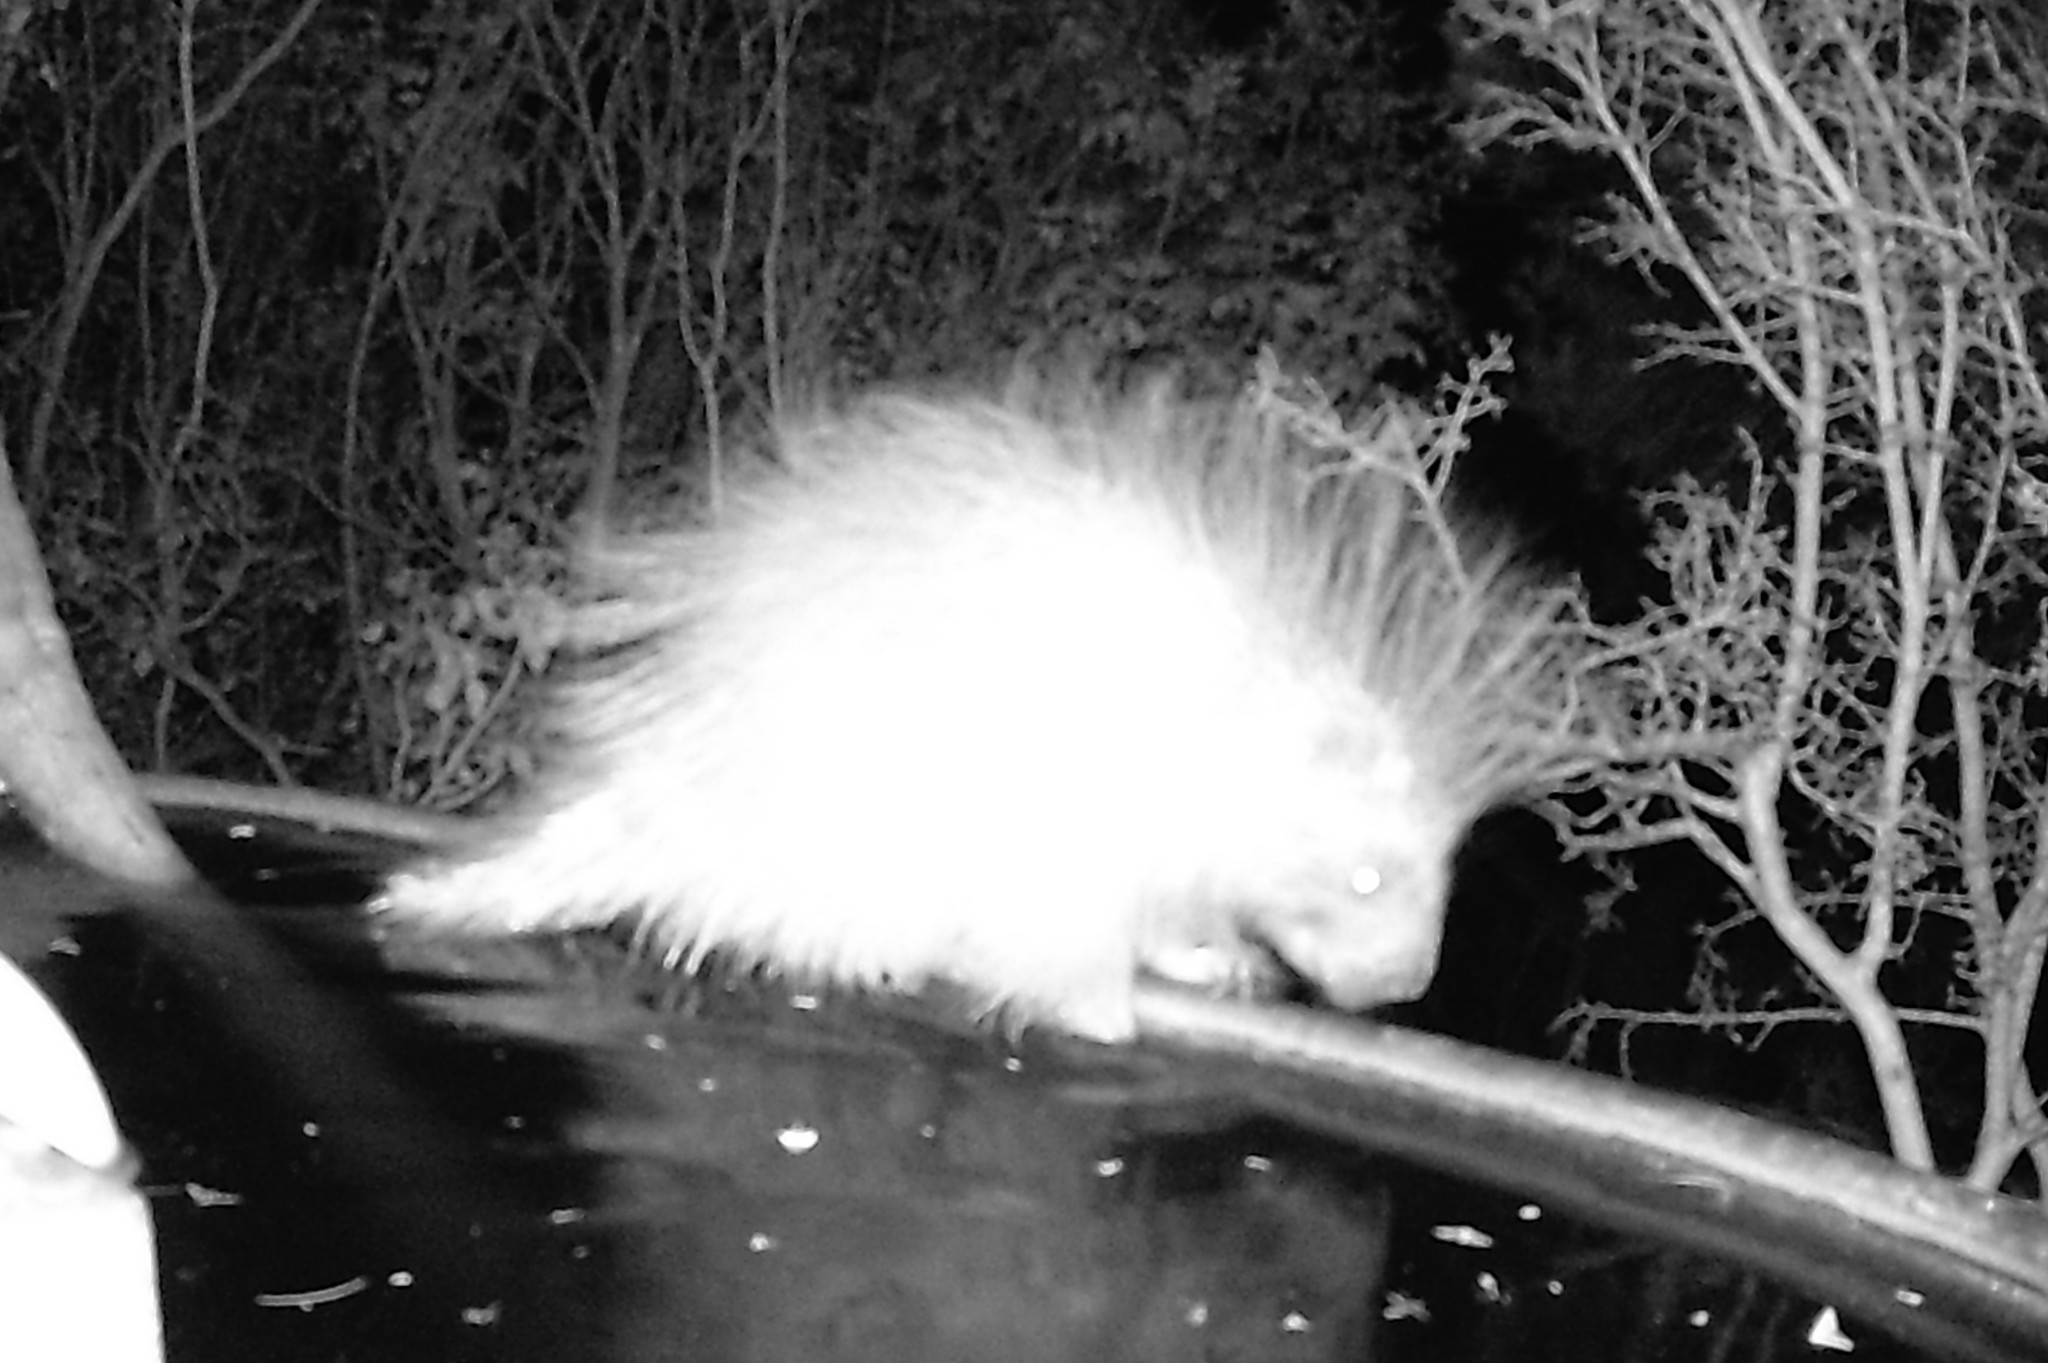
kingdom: Animalia
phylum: Chordata
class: Mammalia
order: Rodentia
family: Erethizontidae
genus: Erethizon
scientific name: Erethizon dorsatus
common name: North american porcupine
